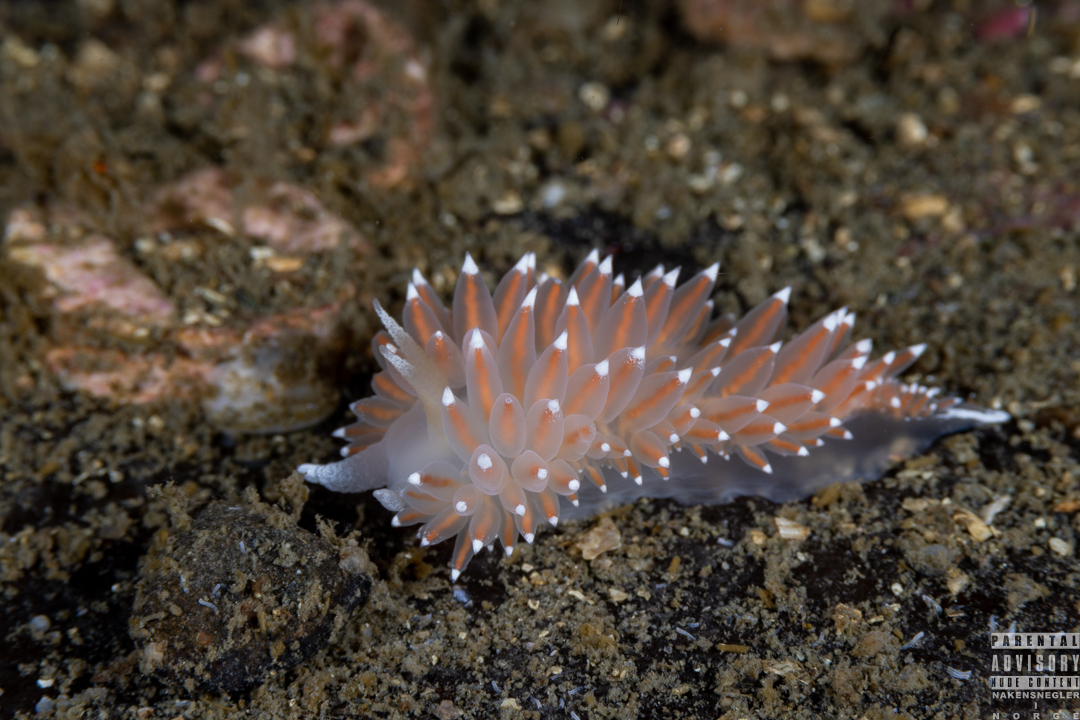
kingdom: Animalia
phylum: Mollusca
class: Gastropoda
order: Nudibranchia
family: Coryphellidae
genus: Coryphella
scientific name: Coryphella nobilis
